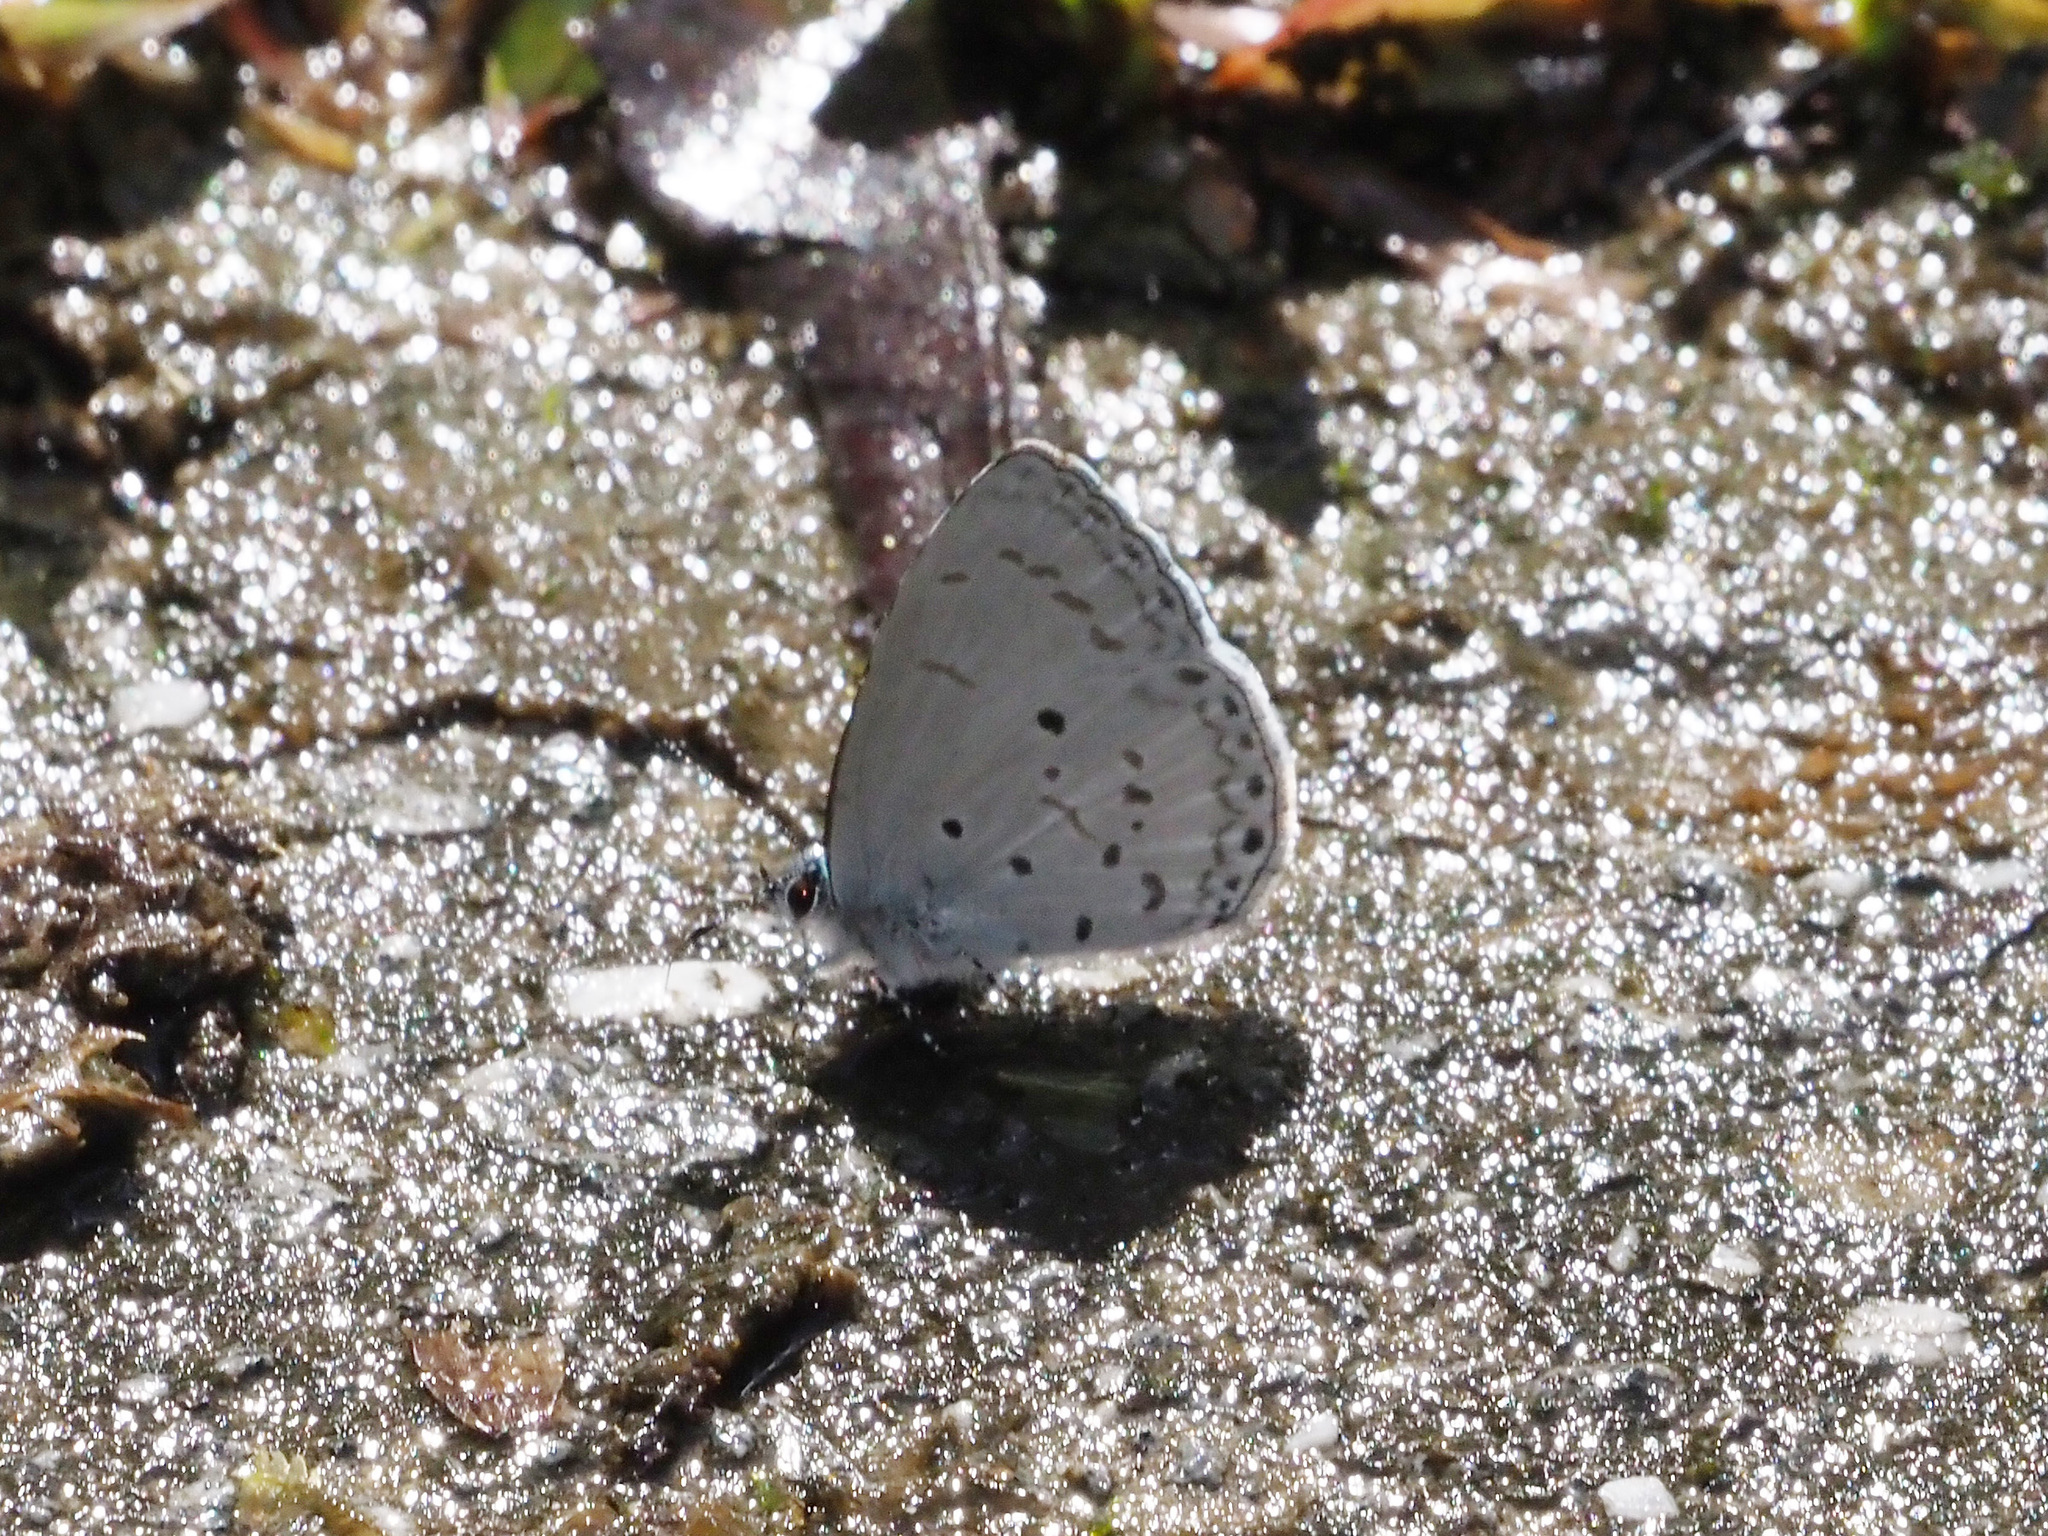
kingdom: Animalia
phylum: Arthropoda
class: Insecta
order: Lepidoptera
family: Lycaenidae
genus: Udara
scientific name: Udara
